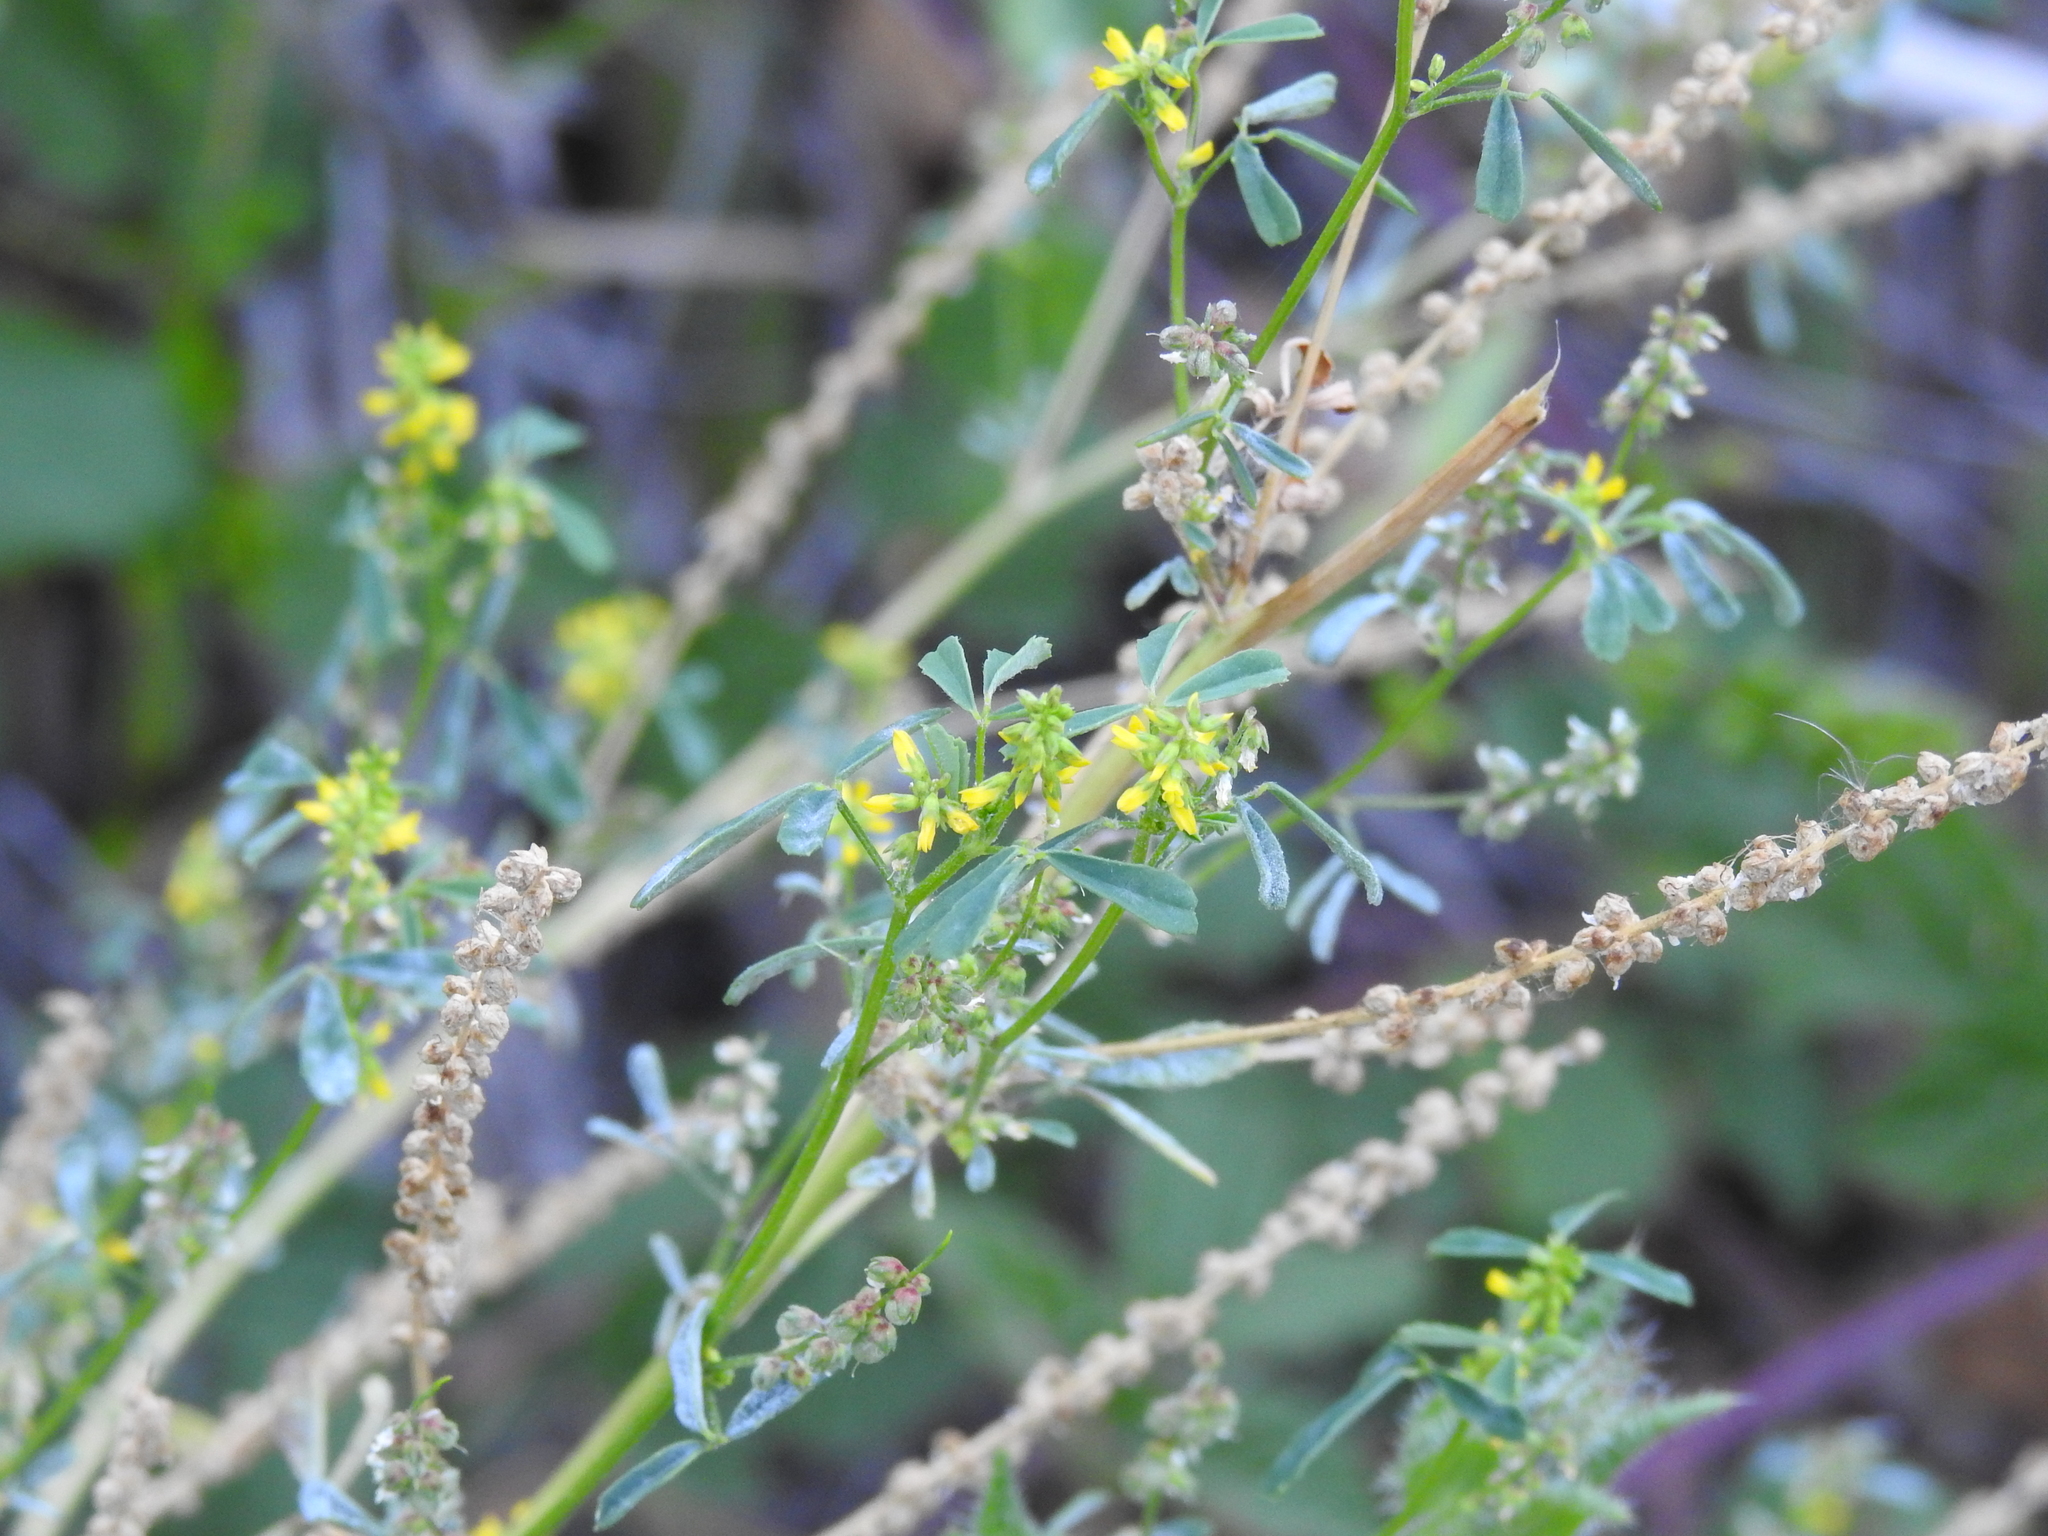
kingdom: Plantae
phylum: Tracheophyta
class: Magnoliopsida
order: Fabales
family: Fabaceae
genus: Melilotus
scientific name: Melilotus indicus
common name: Small melilot
